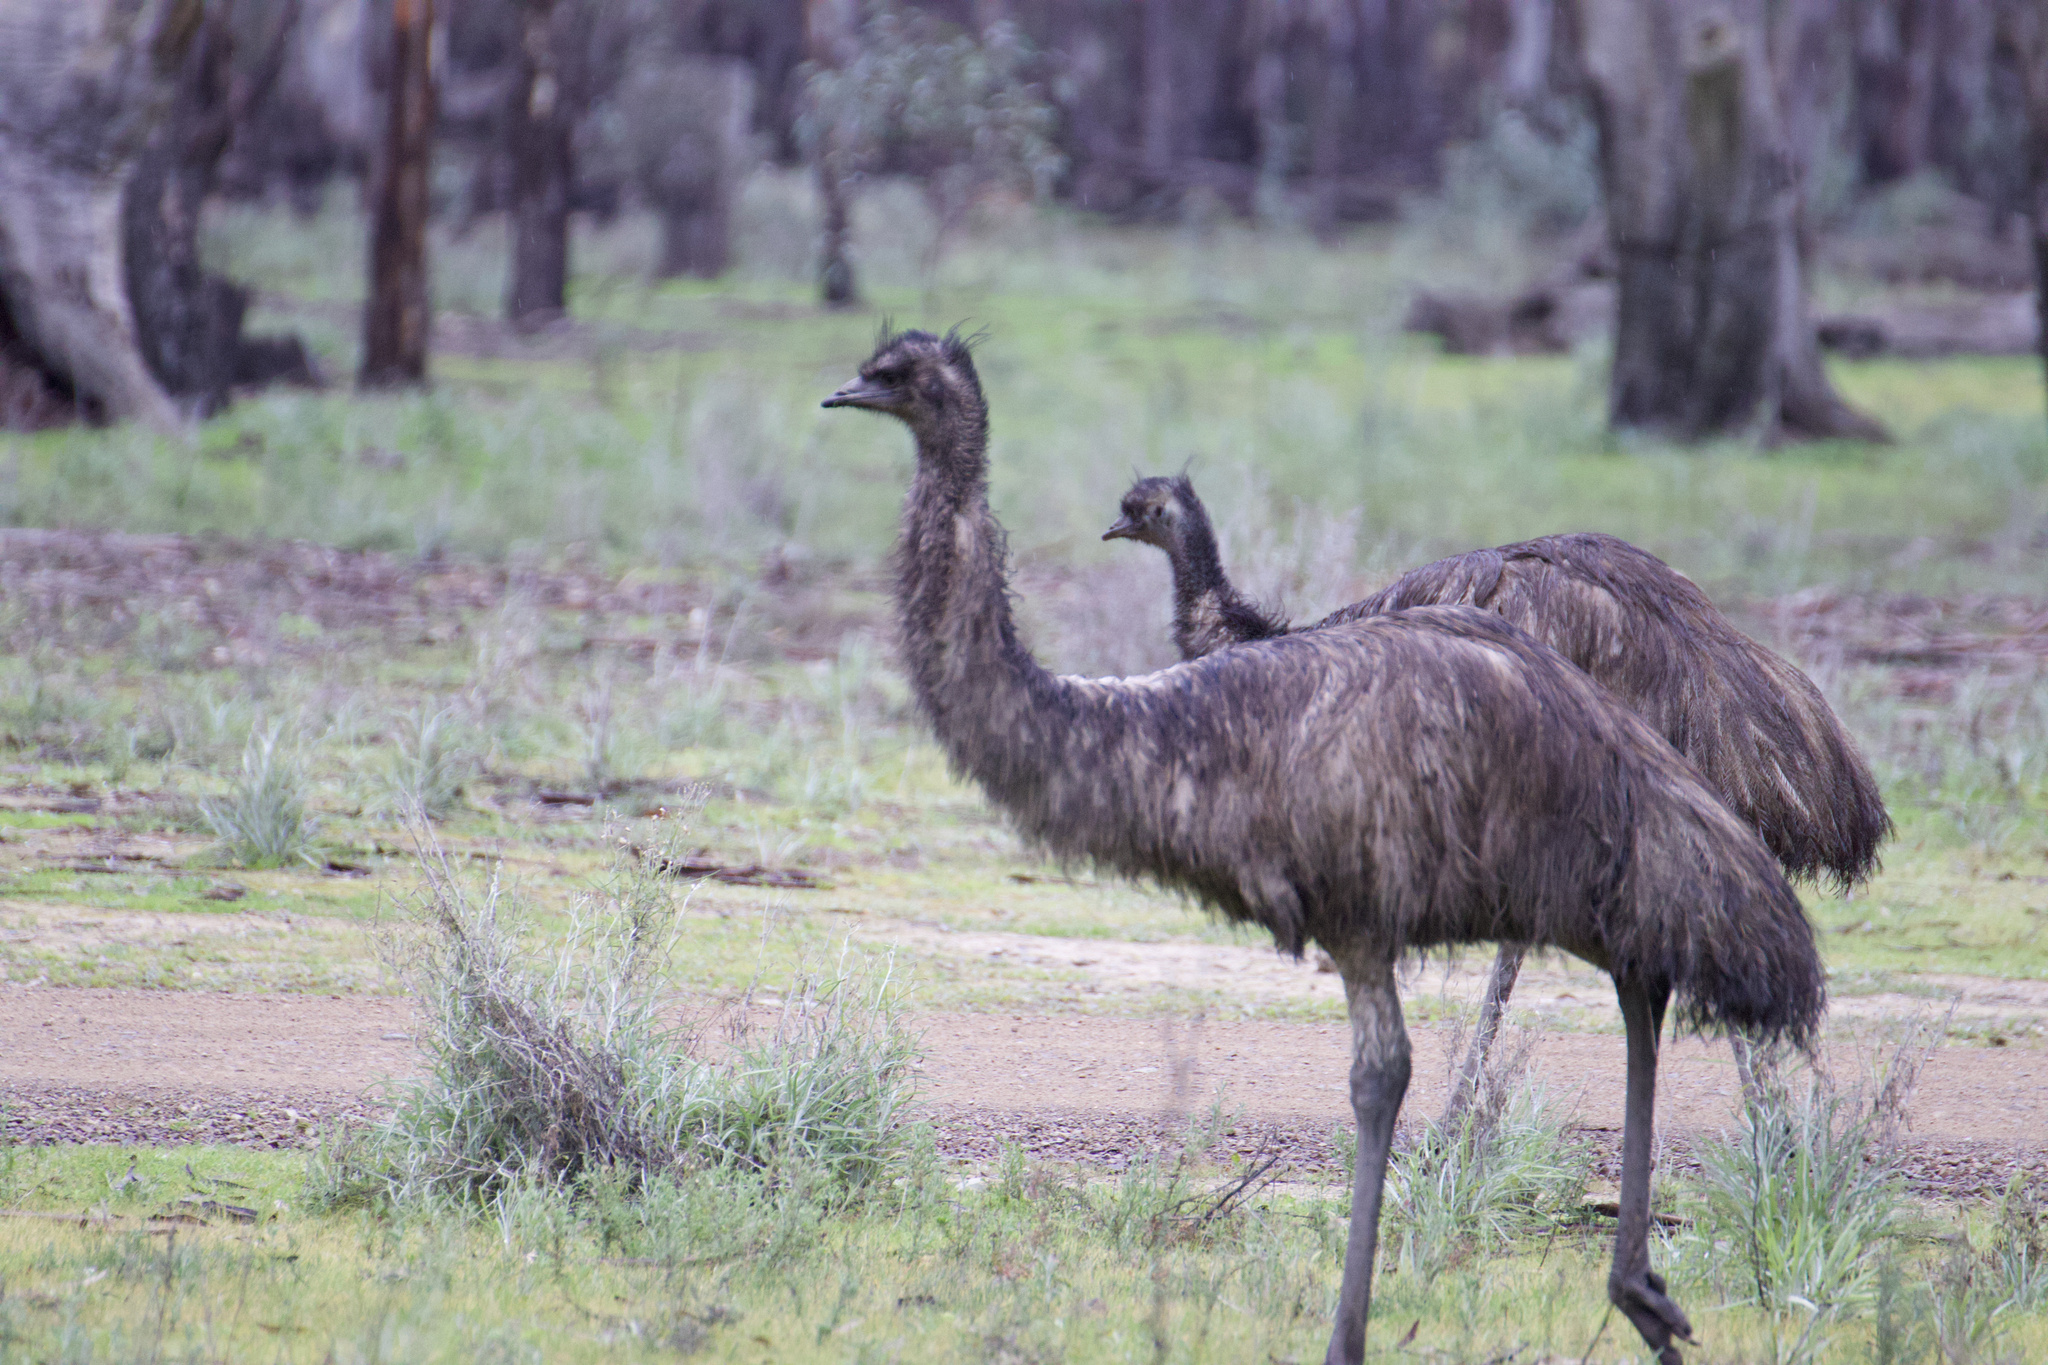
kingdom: Animalia
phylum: Chordata
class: Aves
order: Casuariiformes
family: Dromaiidae
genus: Dromaius
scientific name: Dromaius novaehollandiae
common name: Emu
